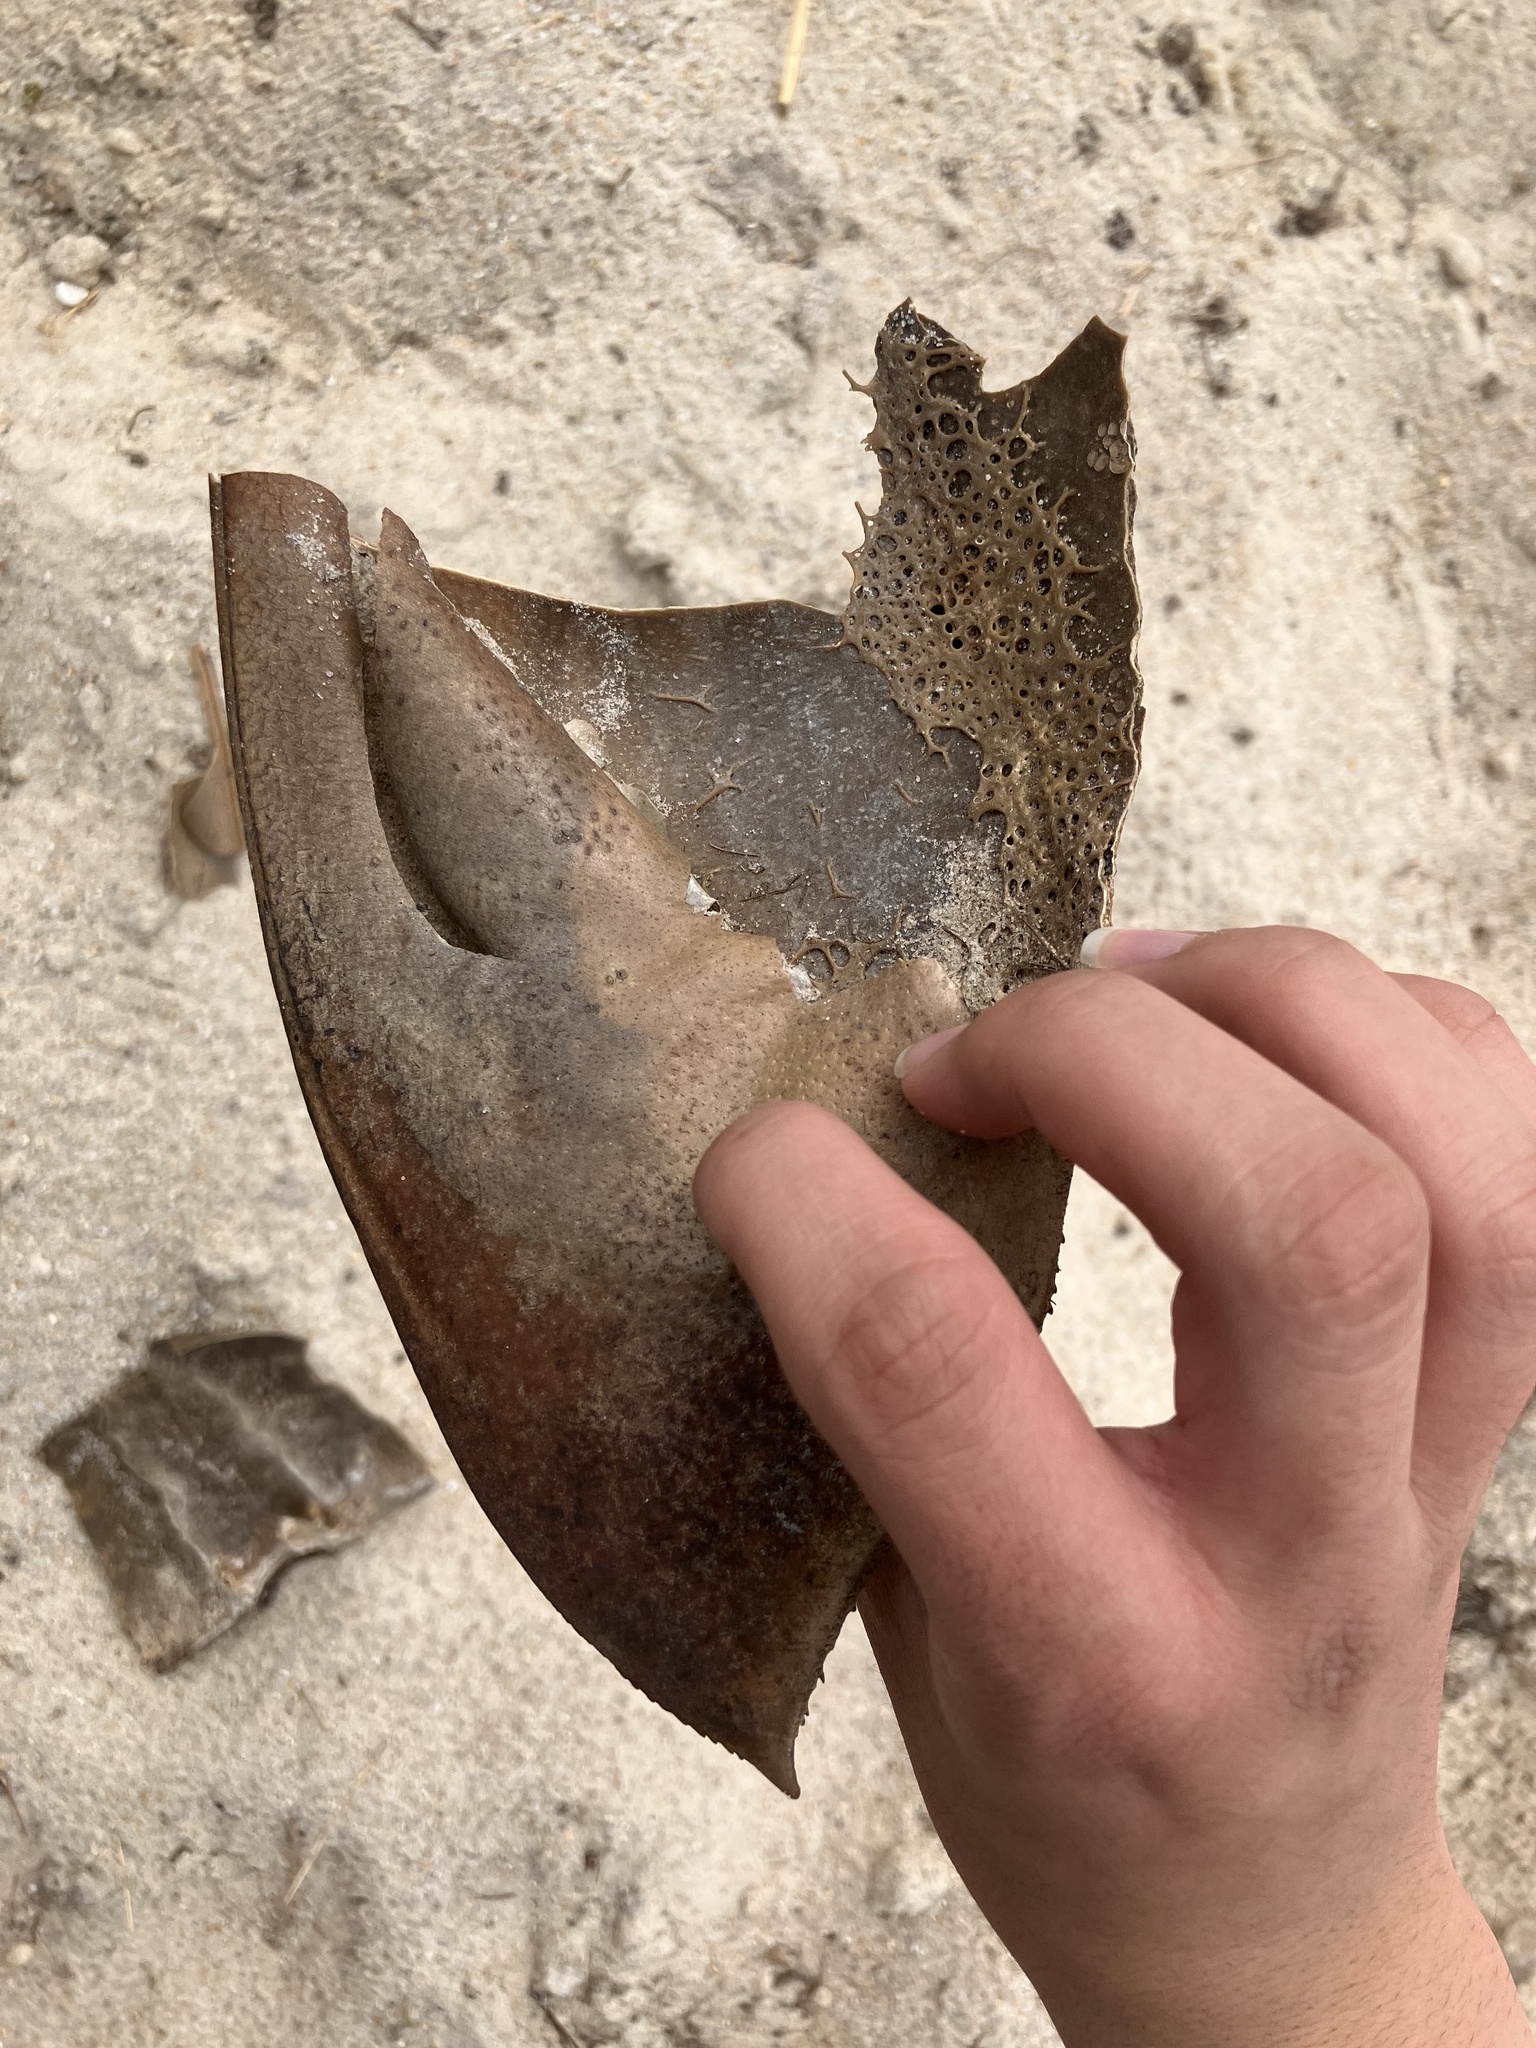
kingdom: Animalia
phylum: Arthropoda
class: Merostomata
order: Xiphosurida
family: Limulidae
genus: Limulus
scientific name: Limulus polyphemus
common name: Horseshoe crab
